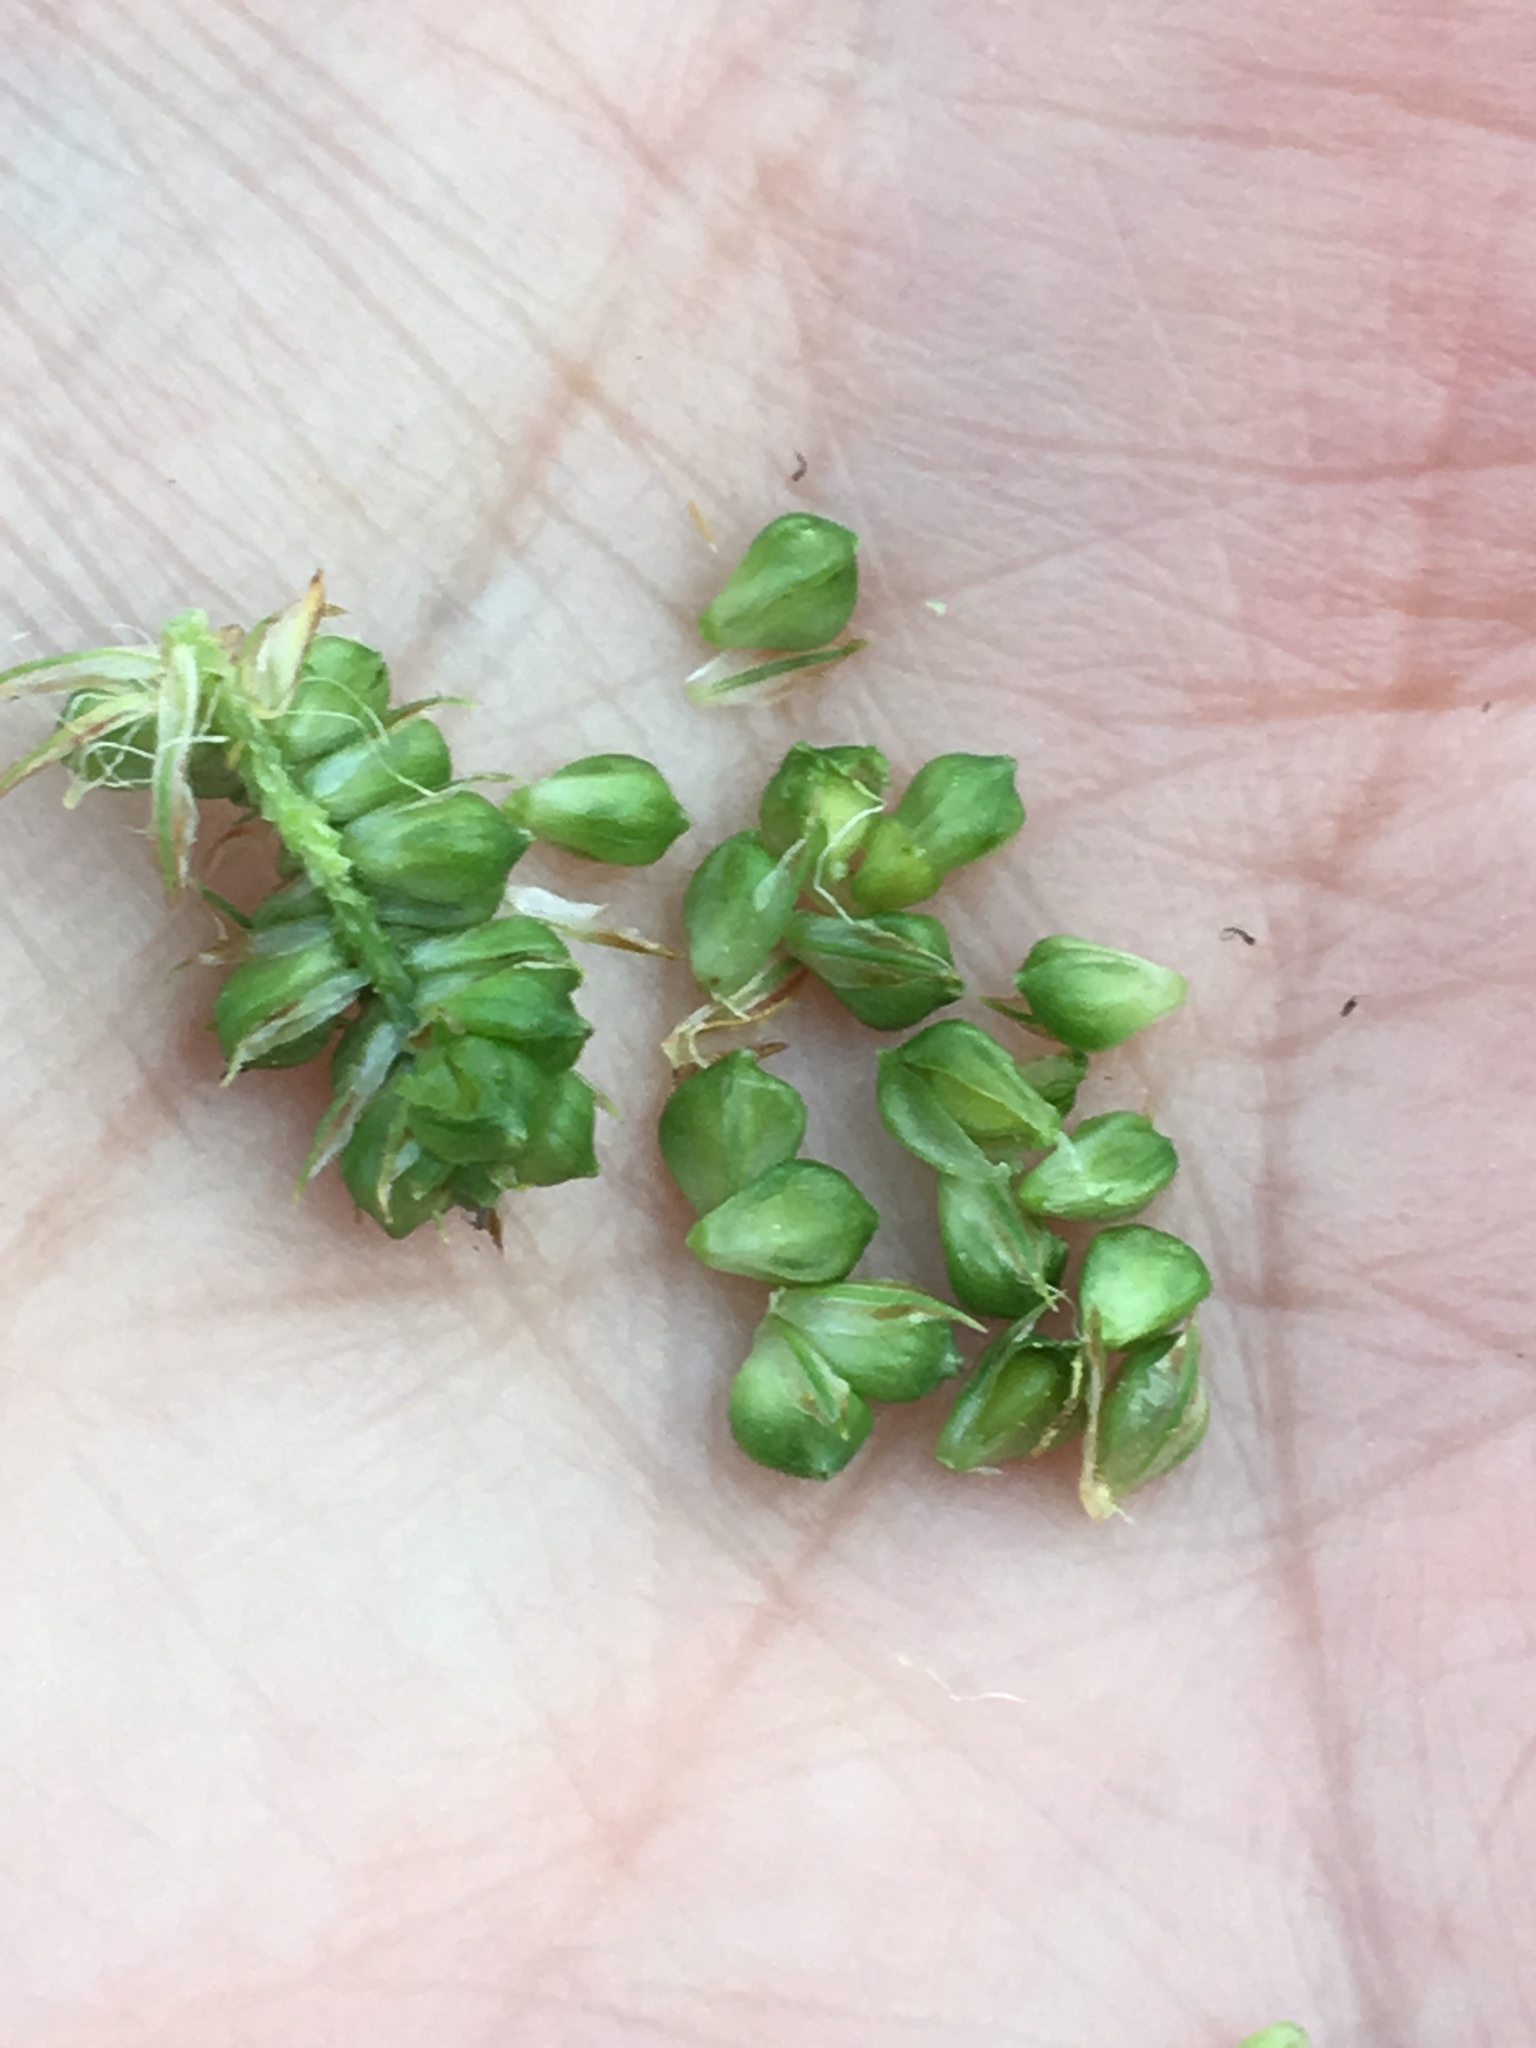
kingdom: Plantae
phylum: Tracheophyta
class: Liliopsida
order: Poales
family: Cyperaceae
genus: Carex
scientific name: Carex bushii
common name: Bush's sedge
